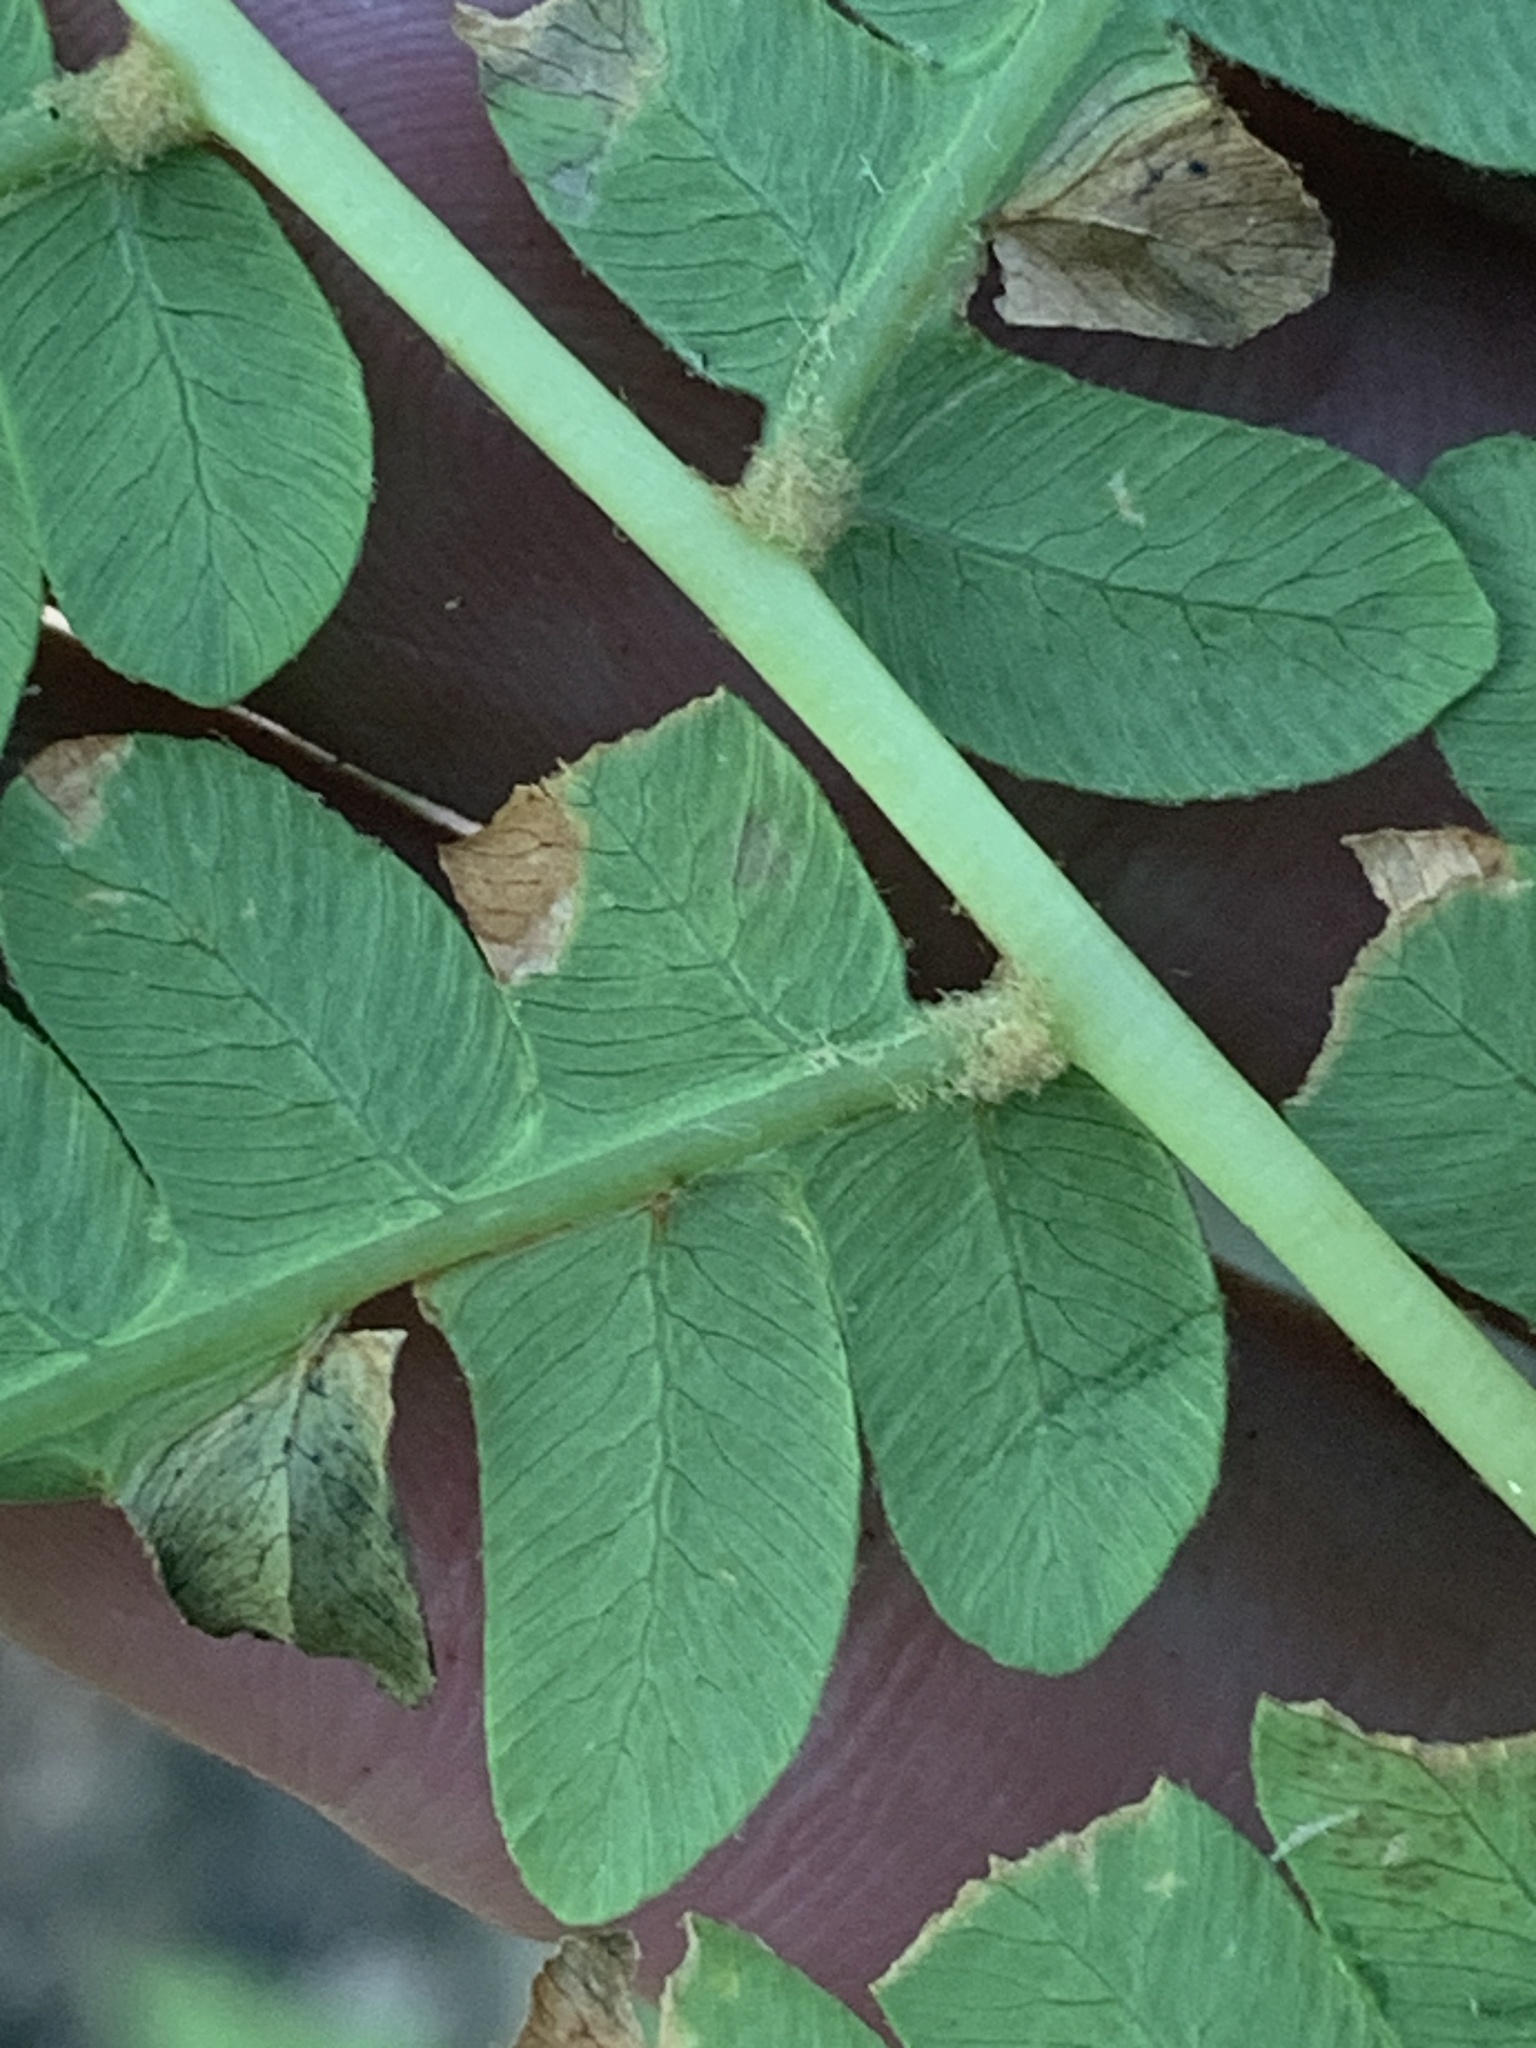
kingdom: Plantae
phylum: Tracheophyta
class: Polypodiopsida
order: Osmundales
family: Osmundaceae
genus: Osmundastrum
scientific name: Osmundastrum cinnamomeum
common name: Cinnamon fern
